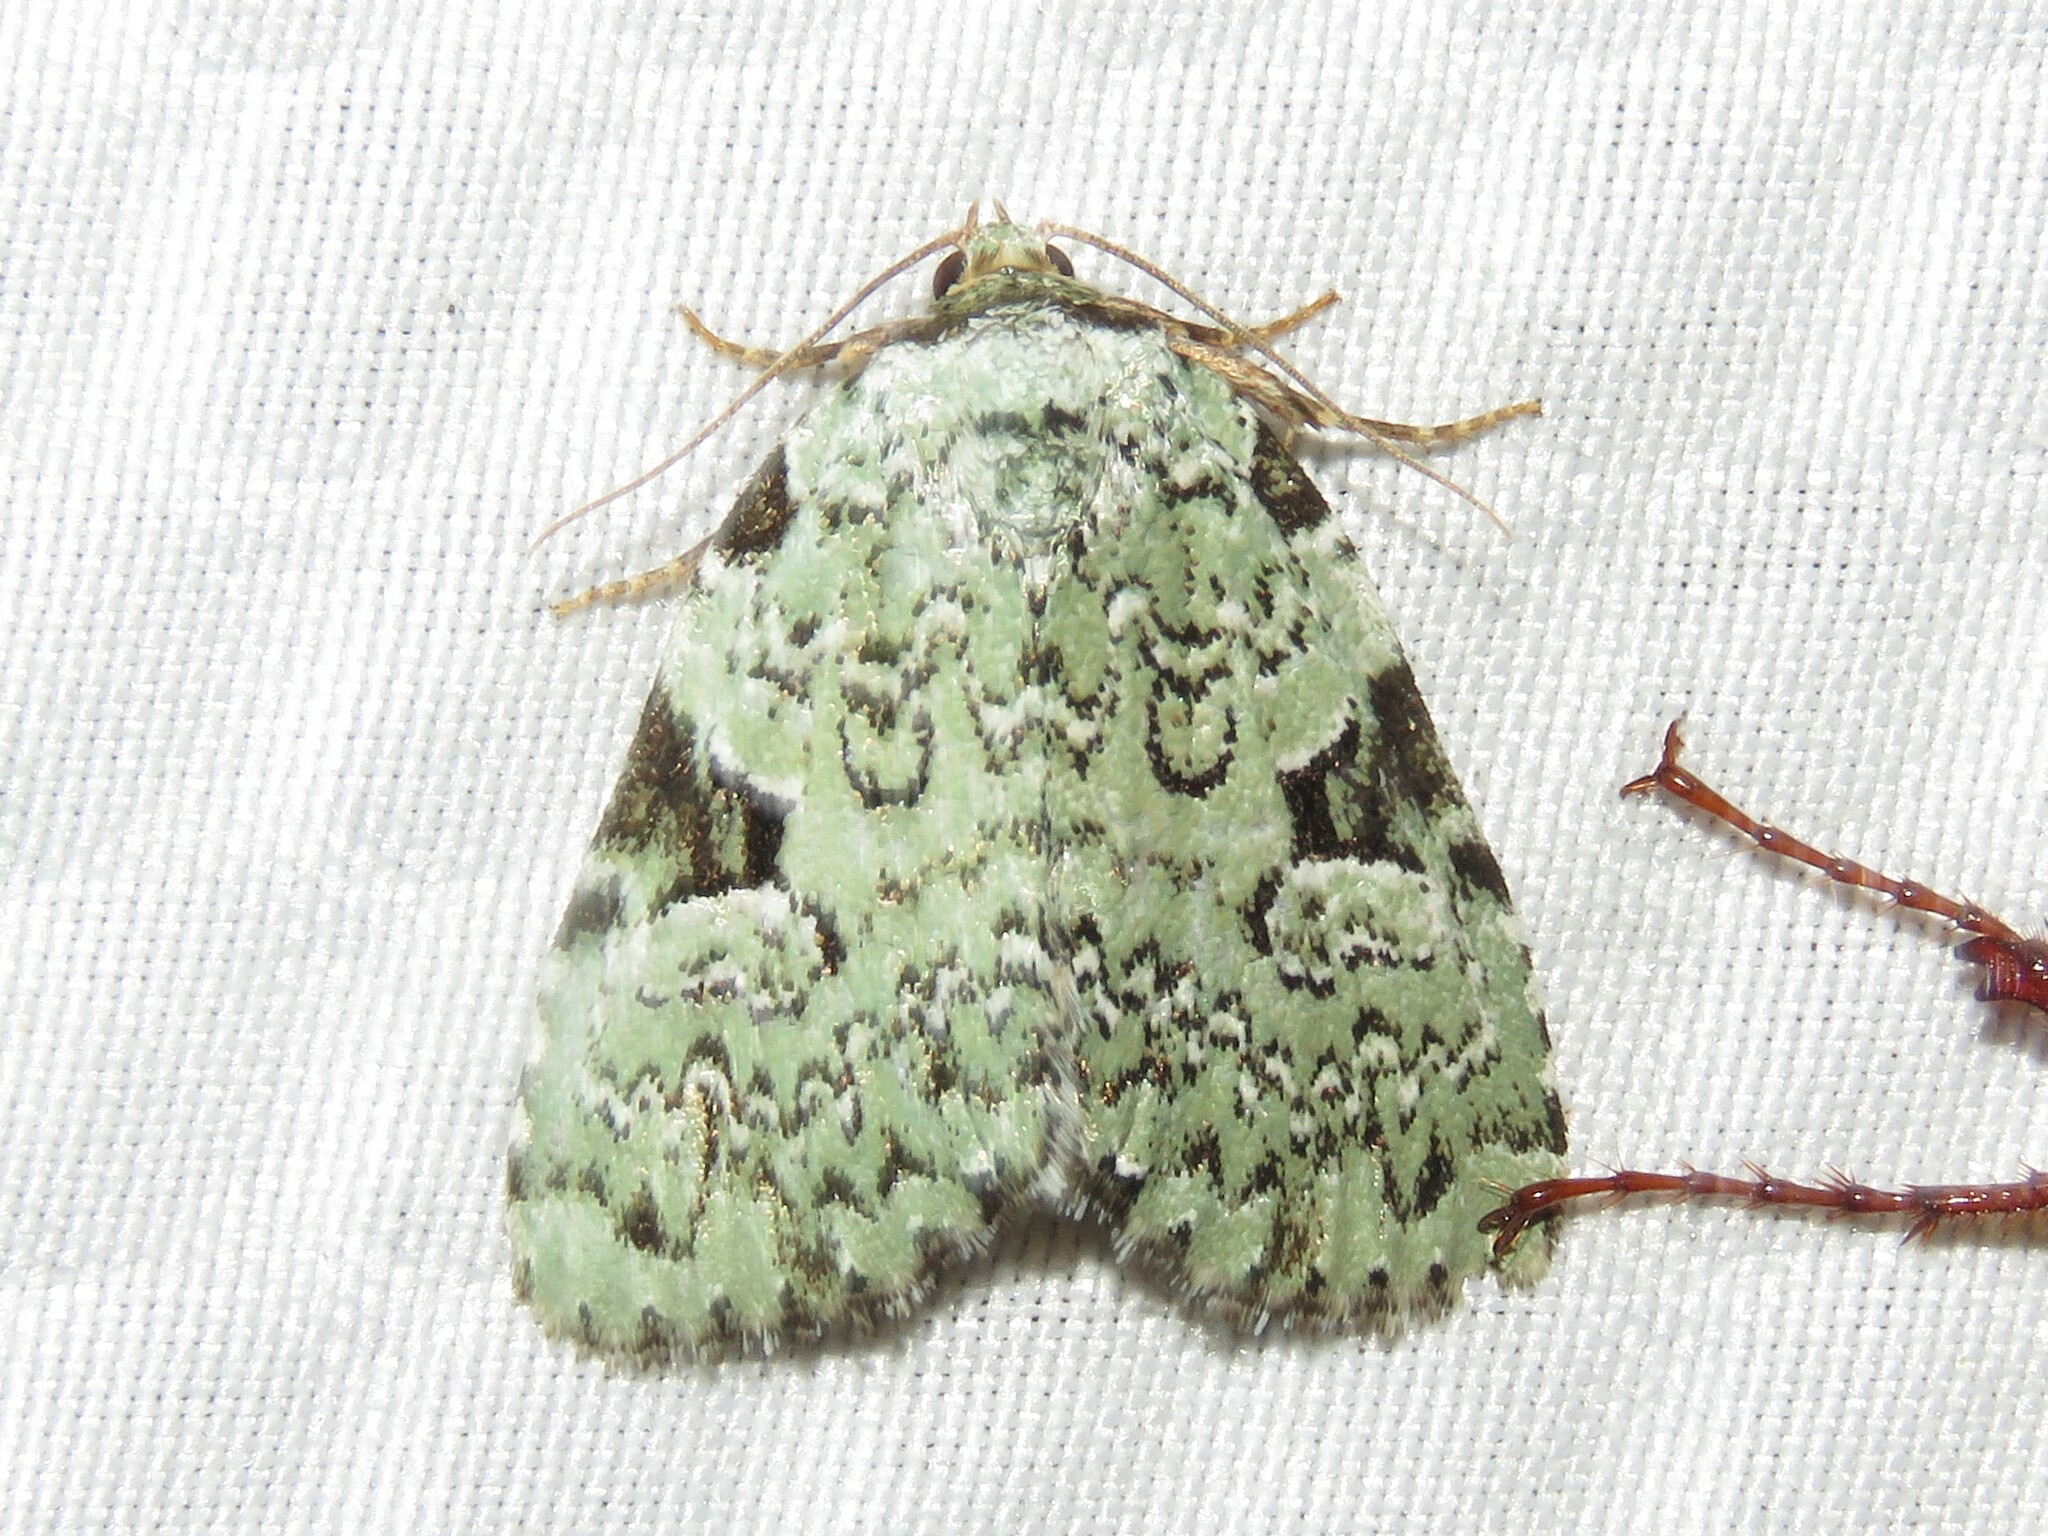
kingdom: Animalia
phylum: Arthropoda
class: Insecta
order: Lepidoptera
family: Noctuidae
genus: Leuconycta
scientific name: Leuconycta diphteroides
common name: Green leuconycta moth
